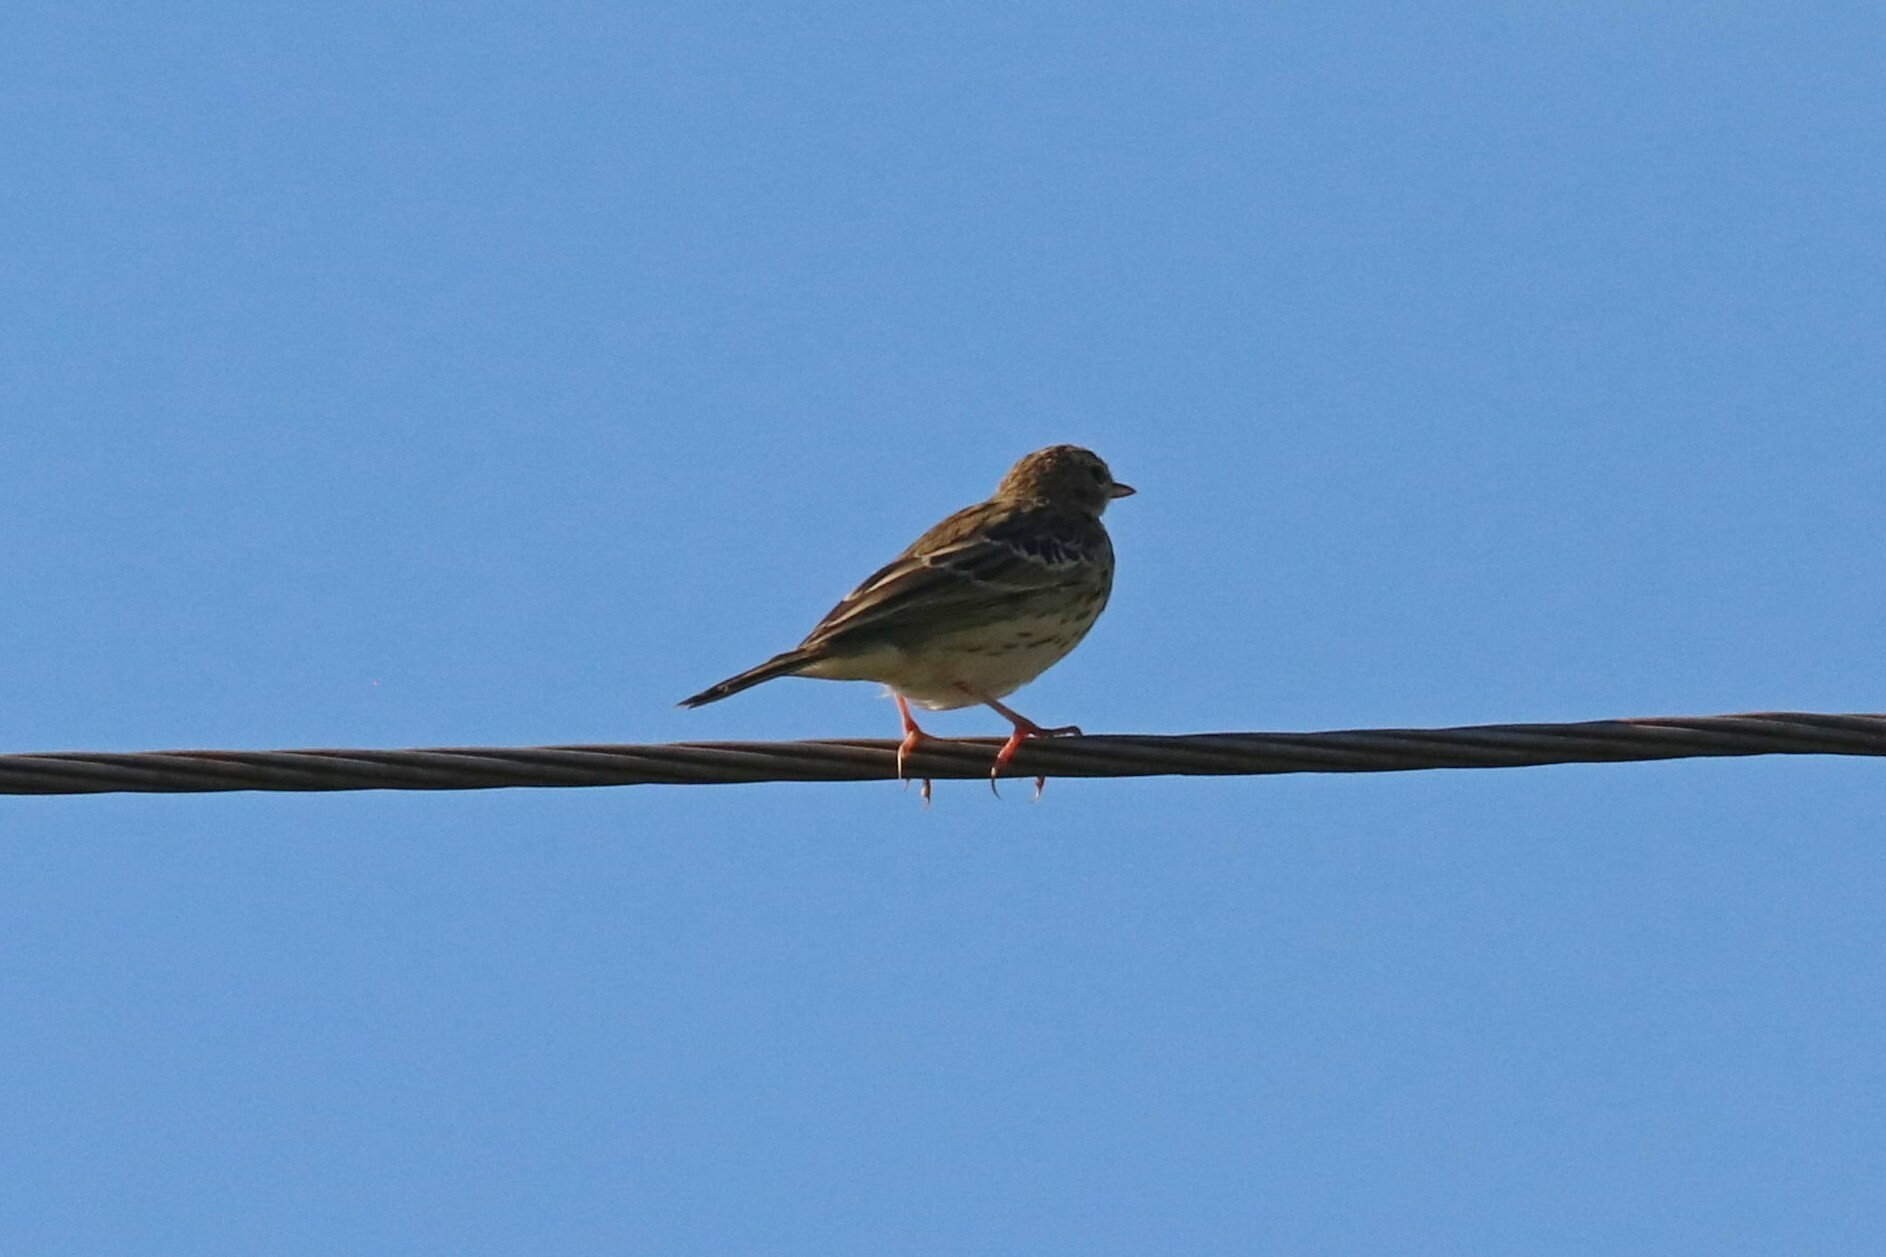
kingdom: Animalia
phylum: Chordata
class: Aves
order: Passeriformes
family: Motacillidae
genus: Anthus
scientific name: Anthus trivialis
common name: Tree pipit
